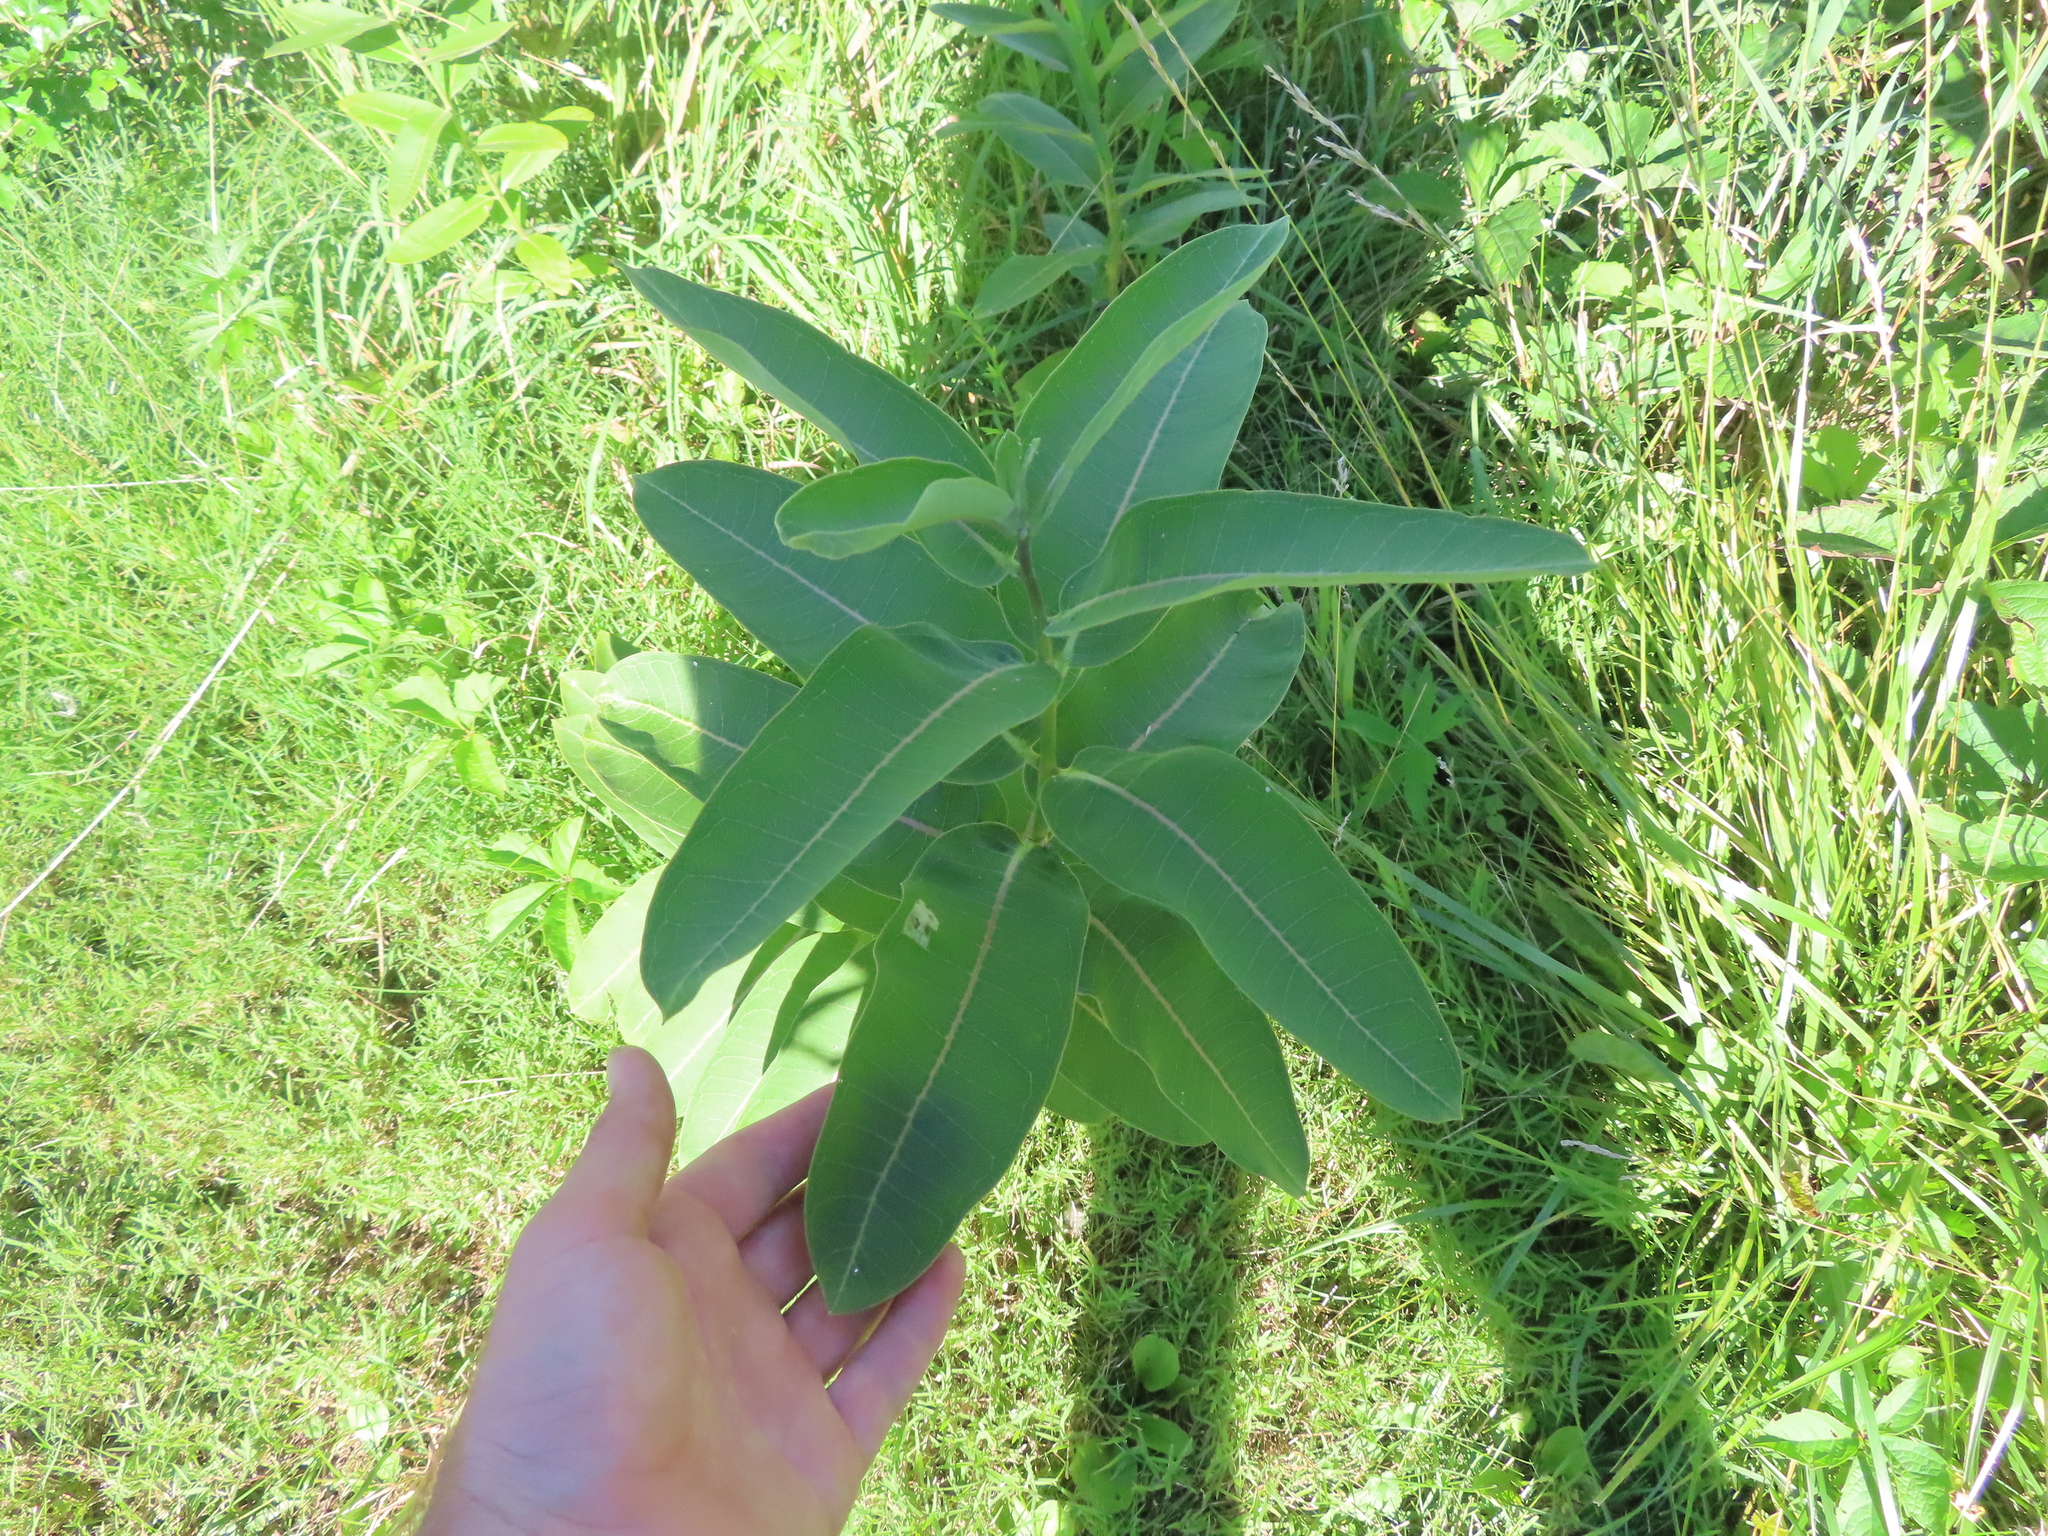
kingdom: Plantae
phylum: Tracheophyta
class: Magnoliopsida
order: Gentianales
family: Apocynaceae
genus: Asclepias
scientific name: Asclepias syriaca
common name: Common milkweed
